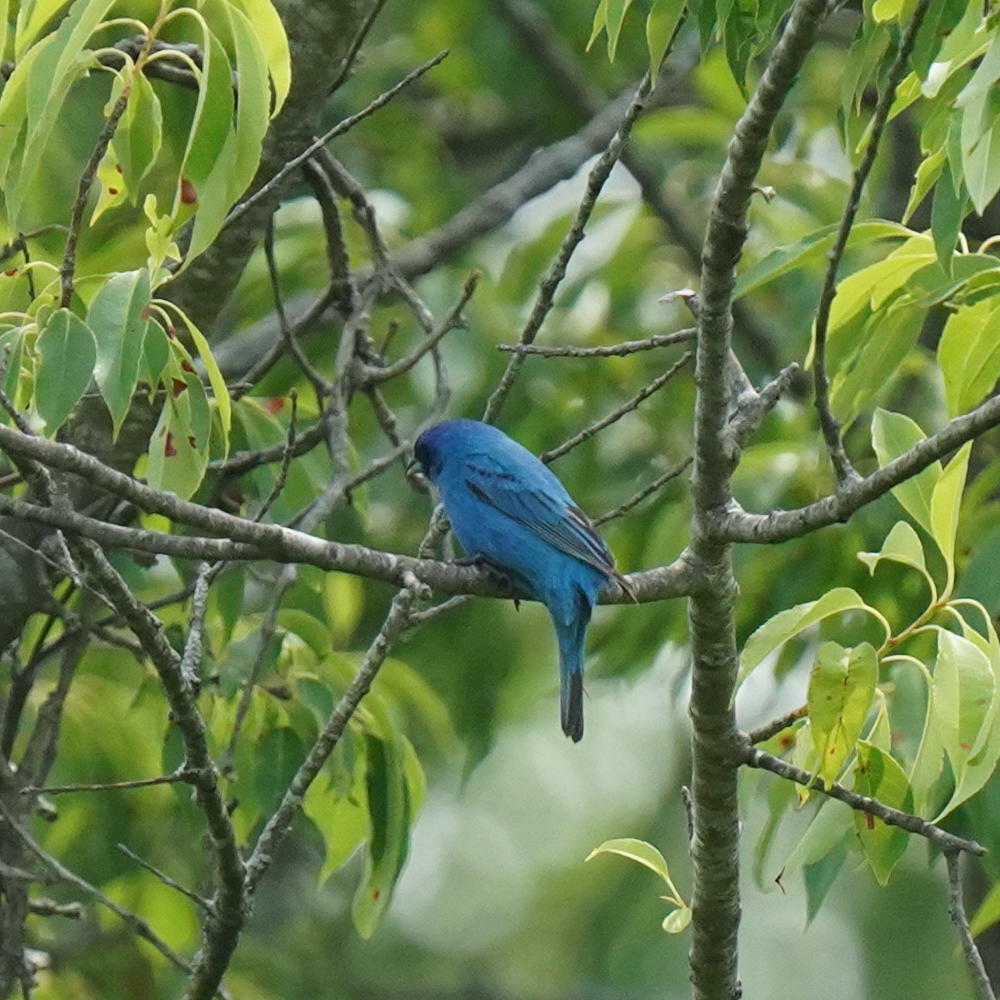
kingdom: Animalia
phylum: Chordata
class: Aves
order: Passeriformes
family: Cardinalidae
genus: Passerina
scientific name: Passerina cyanea
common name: Indigo bunting
